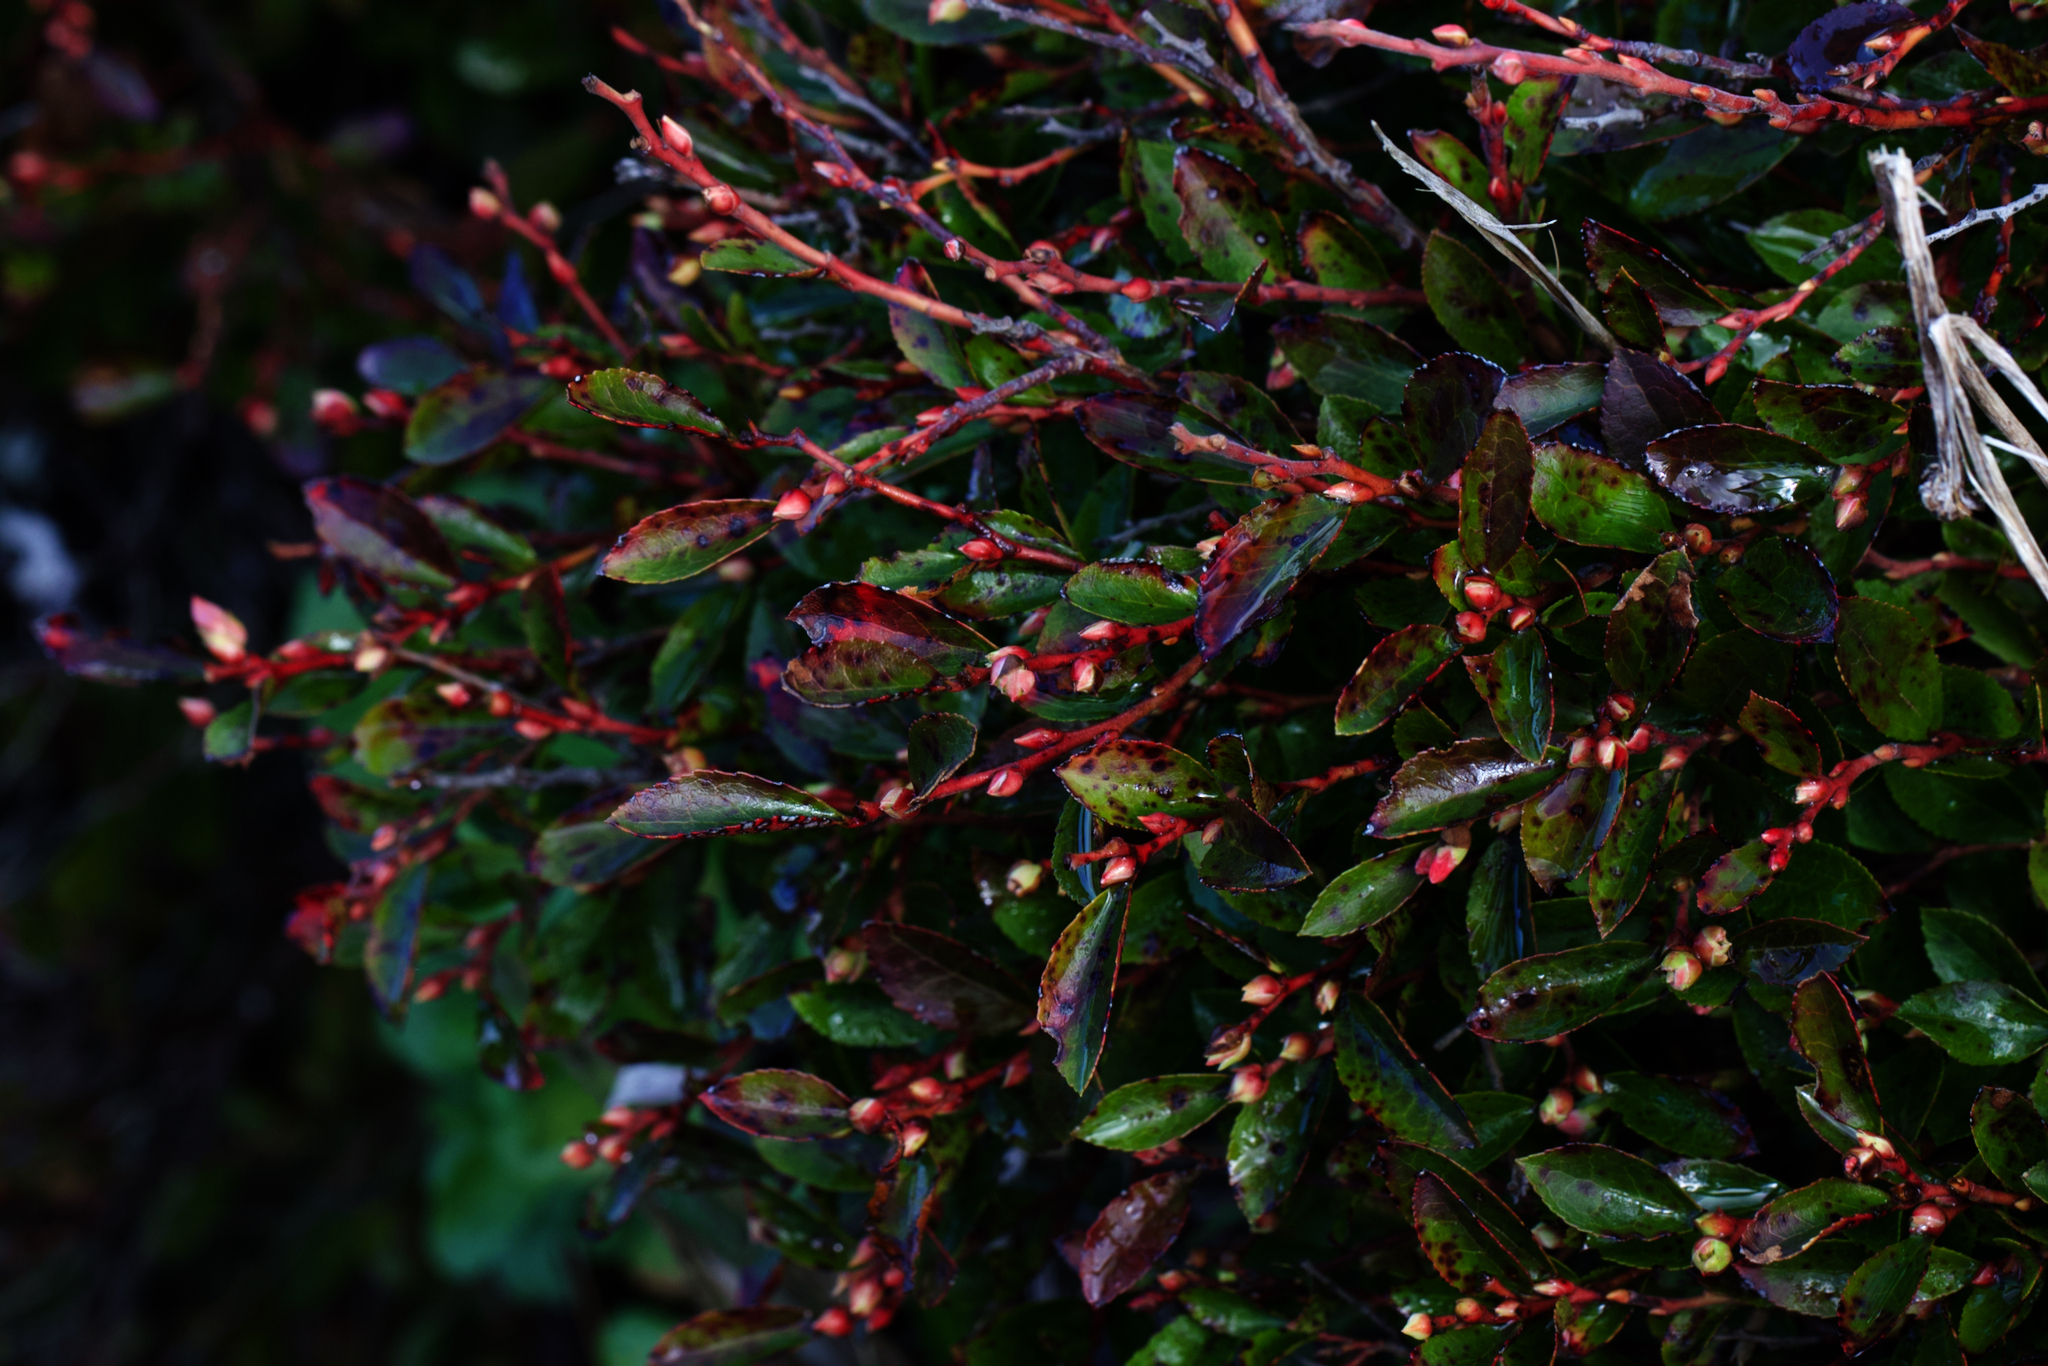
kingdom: Plantae
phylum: Tracheophyta
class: Magnoliopsida
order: Ericales
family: Ericaceae
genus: Vaccinium
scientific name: Vaccinium brunoense
